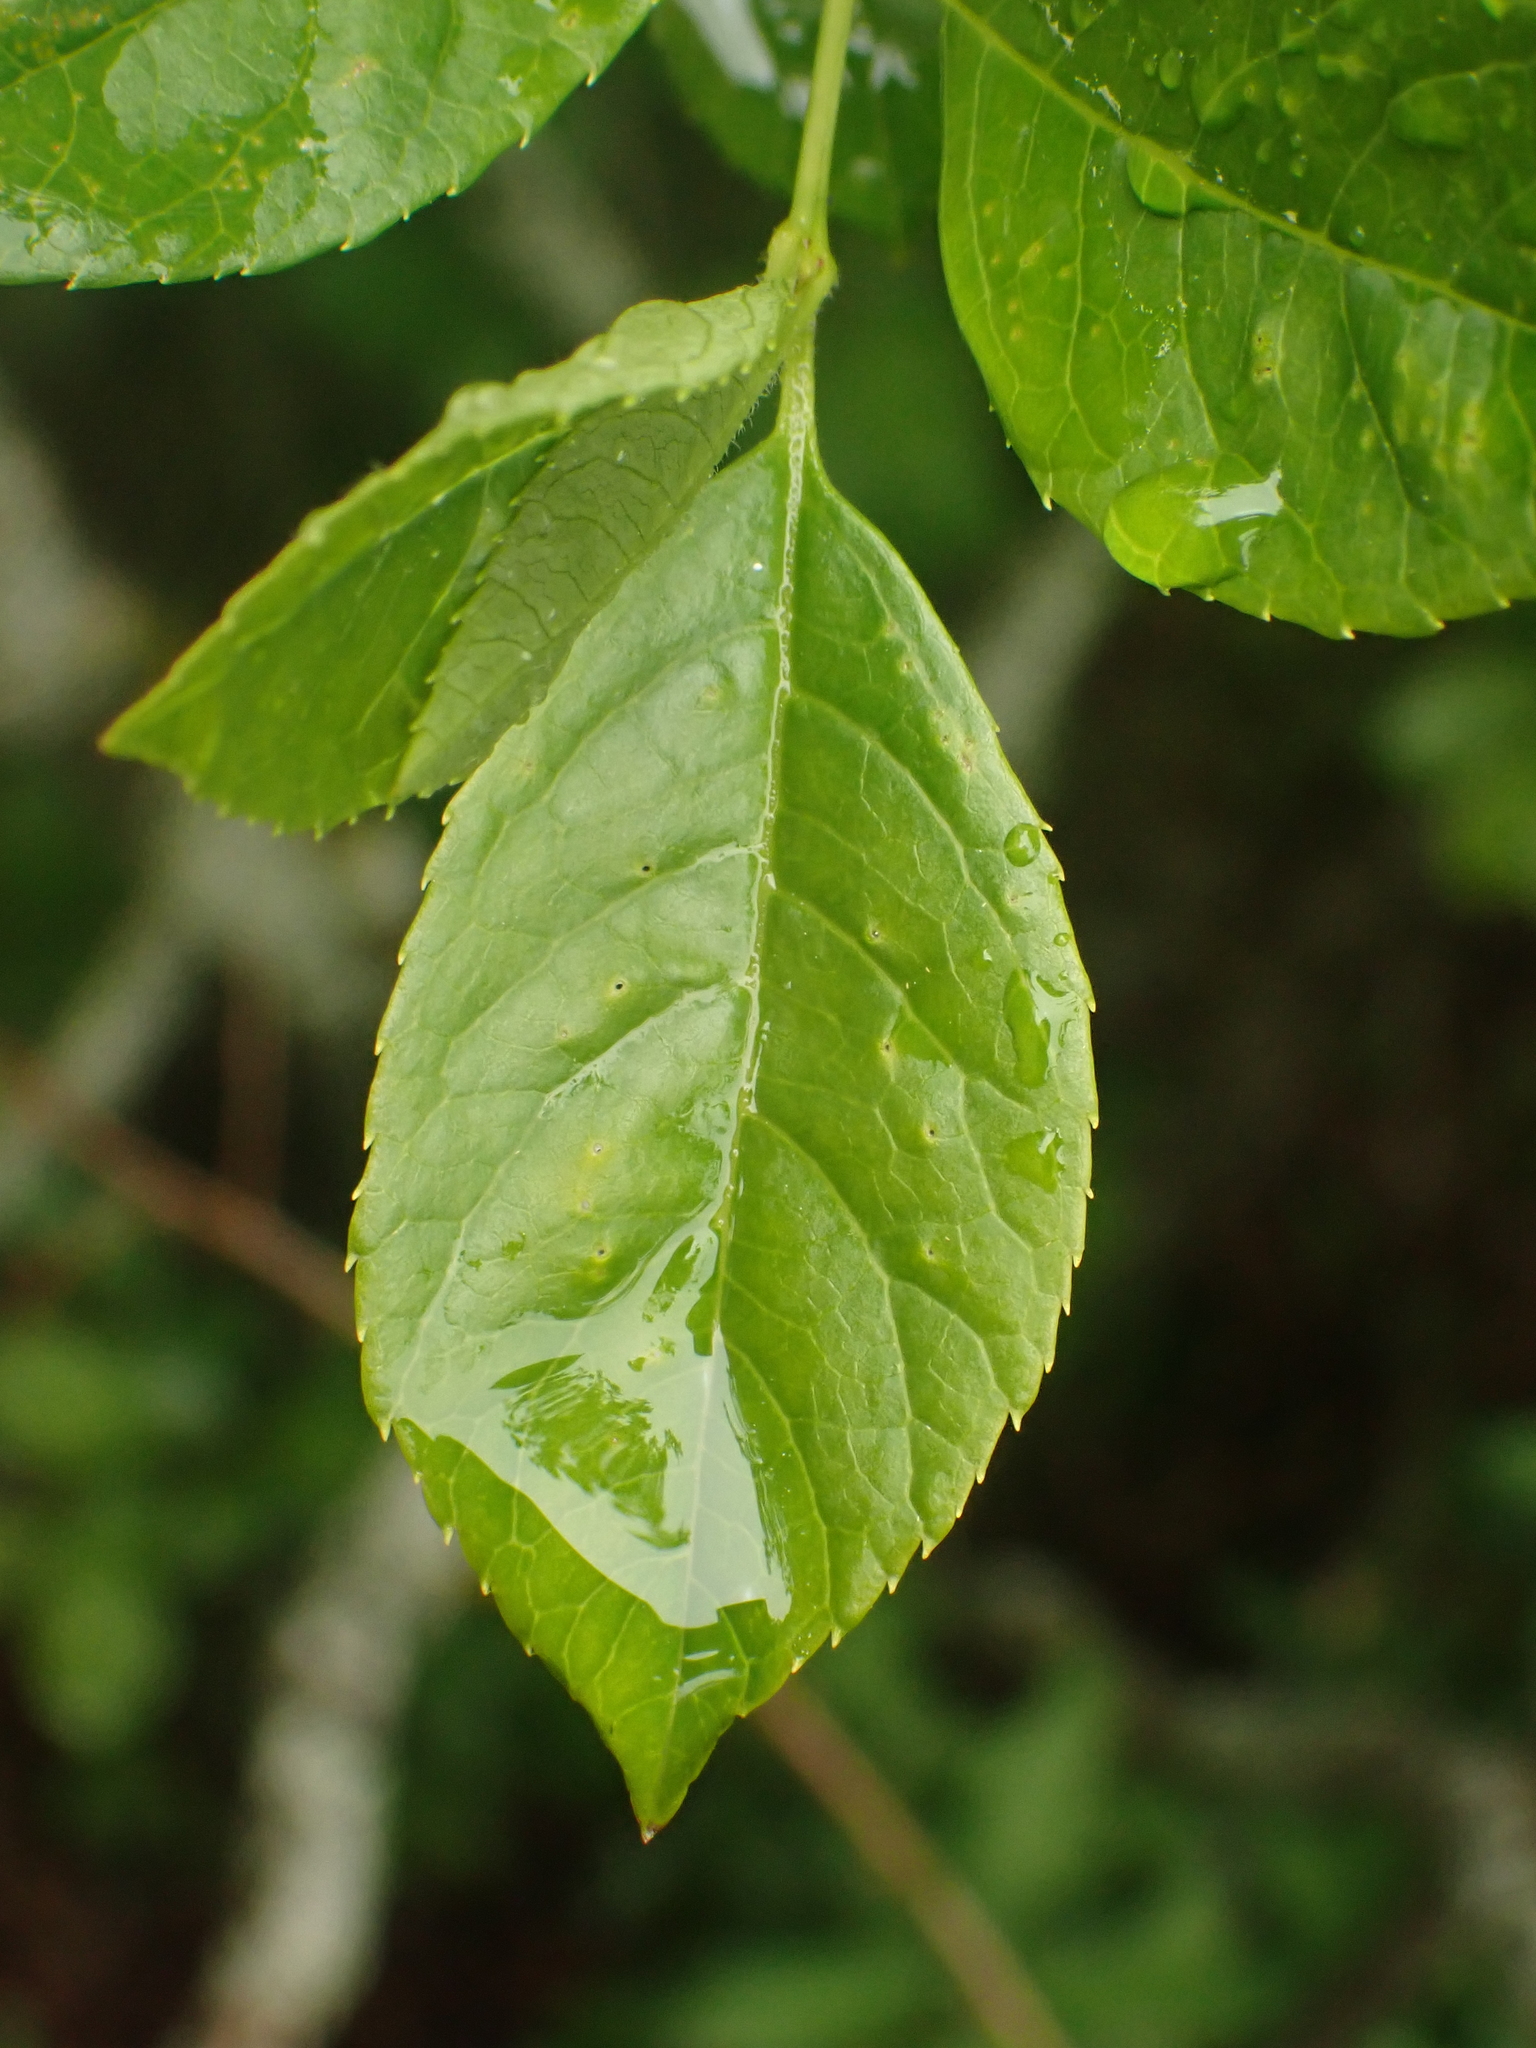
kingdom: Plantae
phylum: Tracheophyta
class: Magnoliopsida
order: Aquifoliales
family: Aquifoliaceae
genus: Ilex
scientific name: Ilex verticillata
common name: Virginia winterberry
